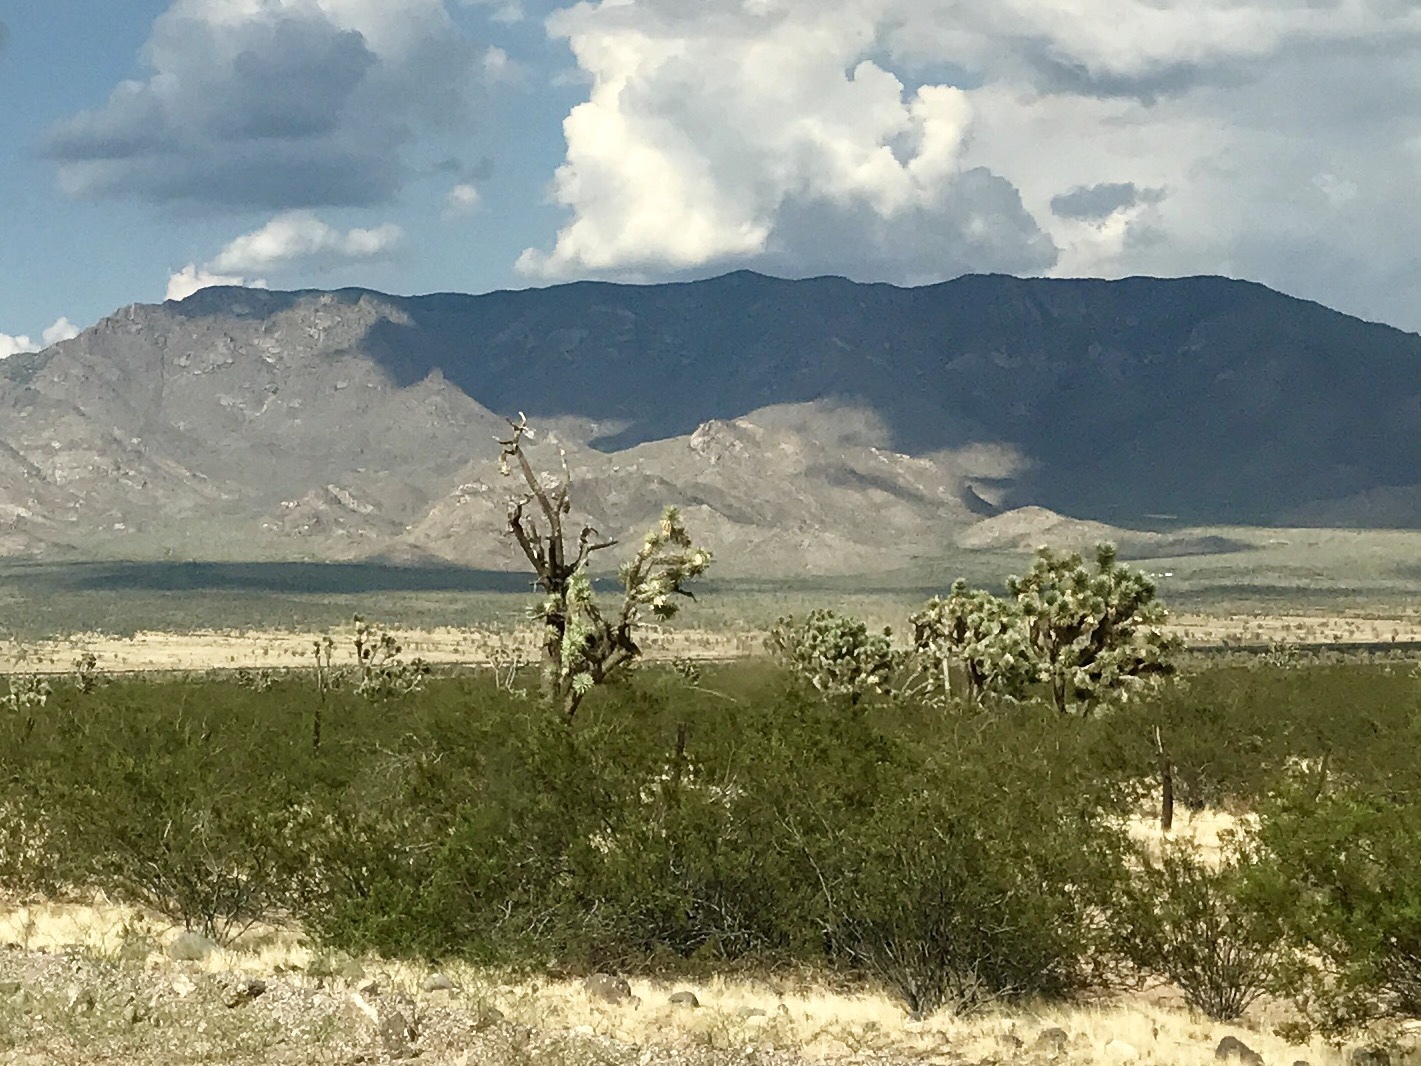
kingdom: Plantae
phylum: Tracheophyta
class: Magnoliopsida
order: Zygophyllales
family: Zygophyllaceae
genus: Larrea
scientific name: Larrea tridentata
